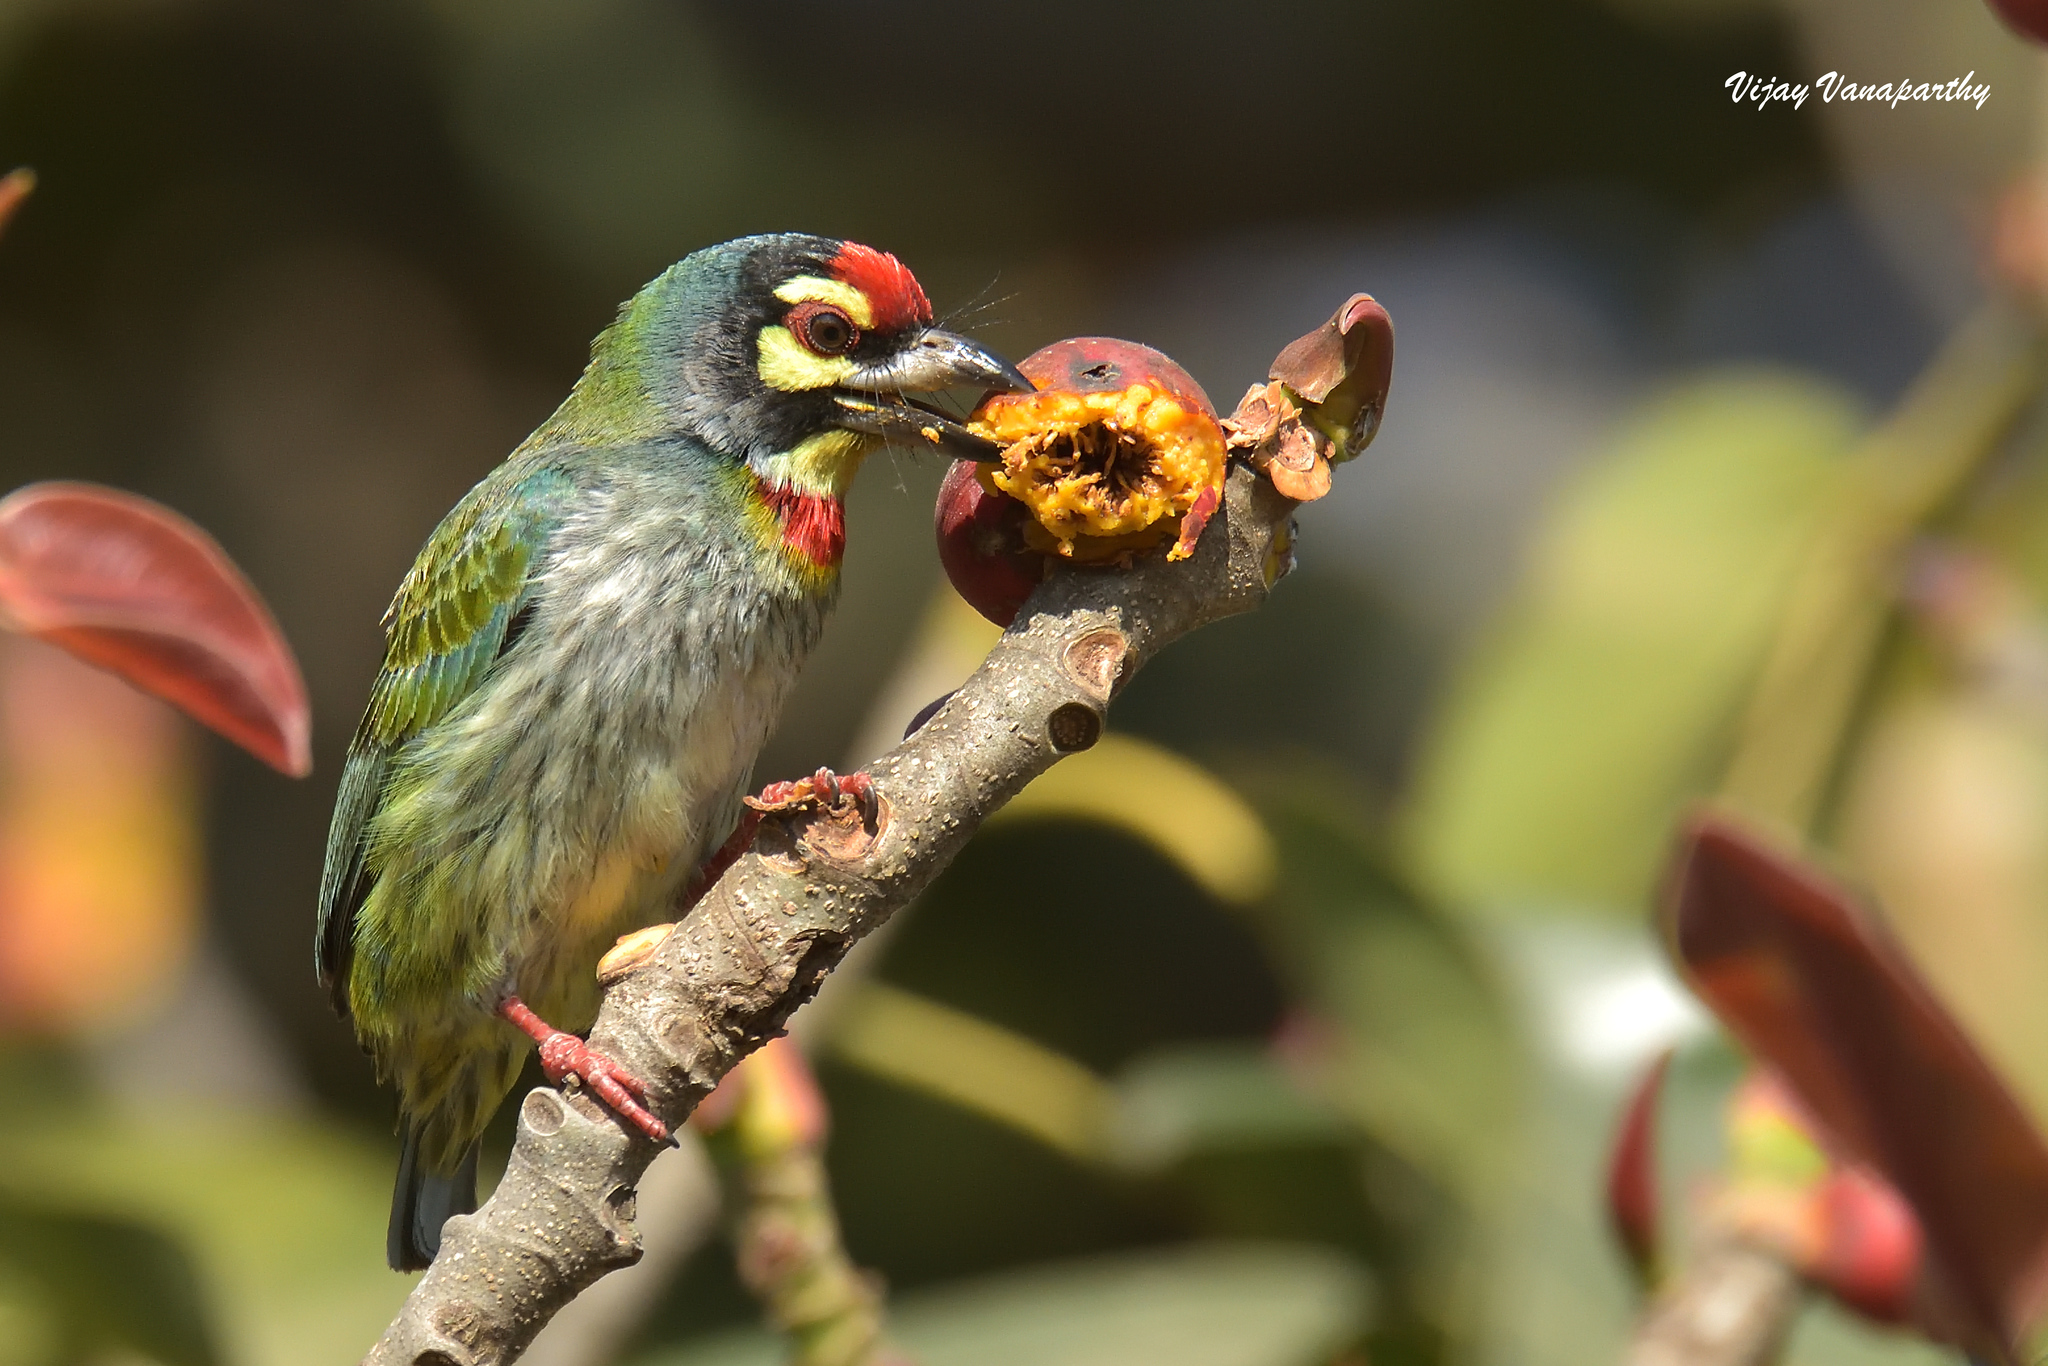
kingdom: Animalia
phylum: Chordata
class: Aves
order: Piciformes
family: Megalaimidae
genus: Psilopogon
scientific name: Psilopogon haemacephalus
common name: Coppersmith barbet
